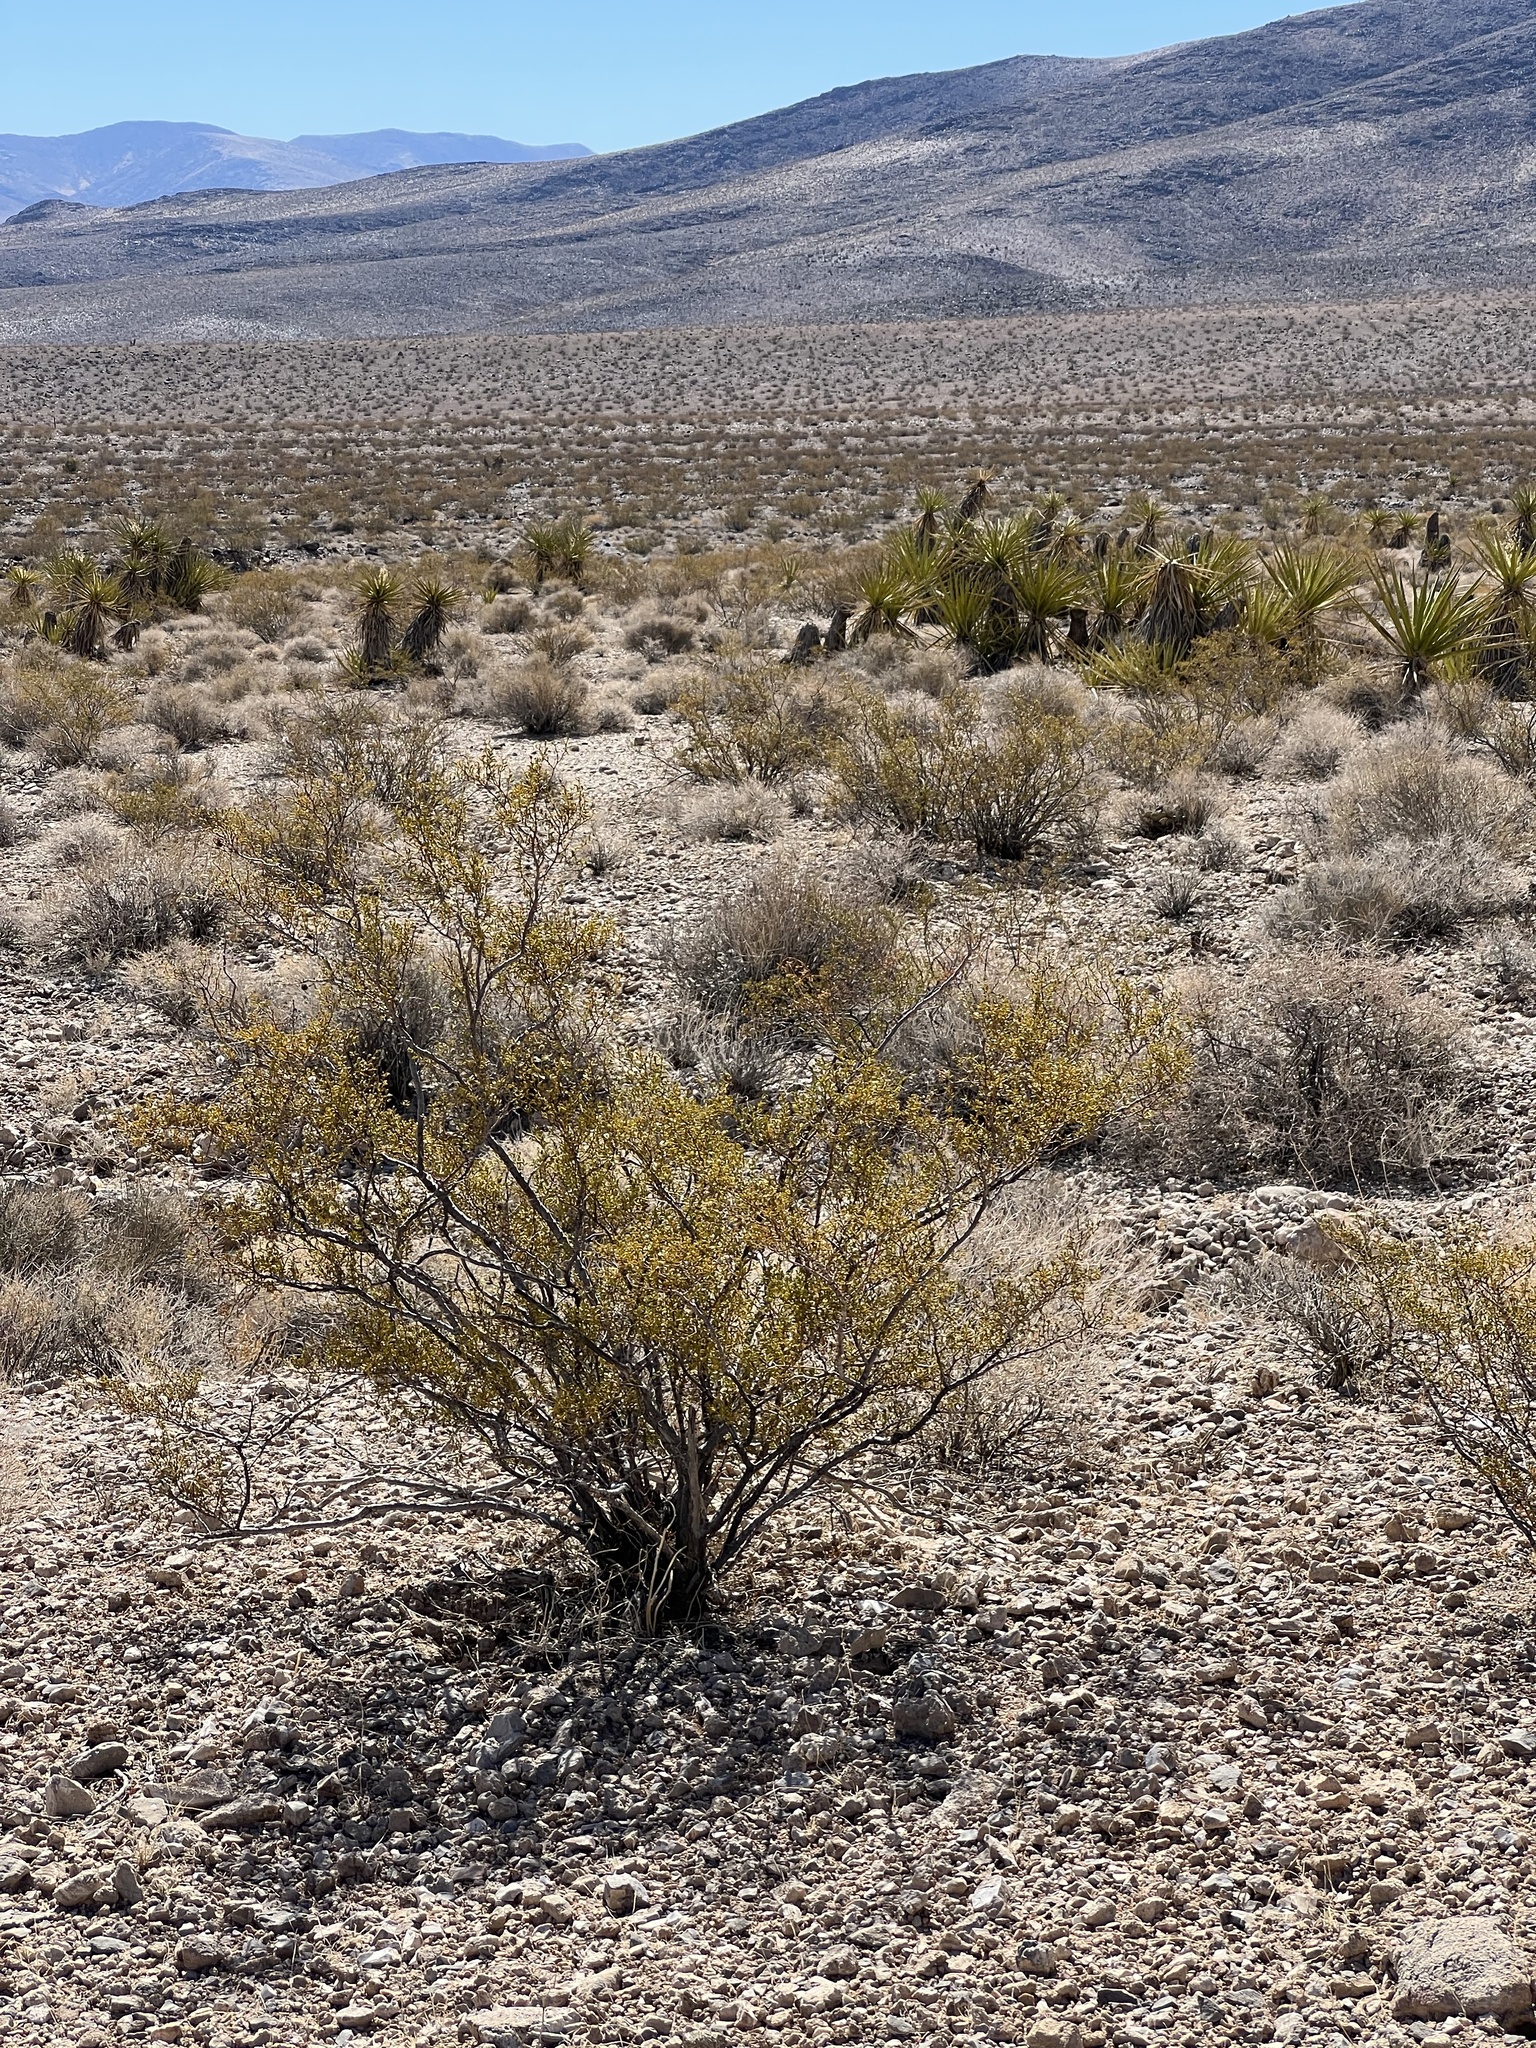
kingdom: Plantae
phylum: Tracheophyta
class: Magnoliopsida
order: Zygophyllales
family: Zygophyllaceae
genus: Larrea
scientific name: Larrea tridentata
